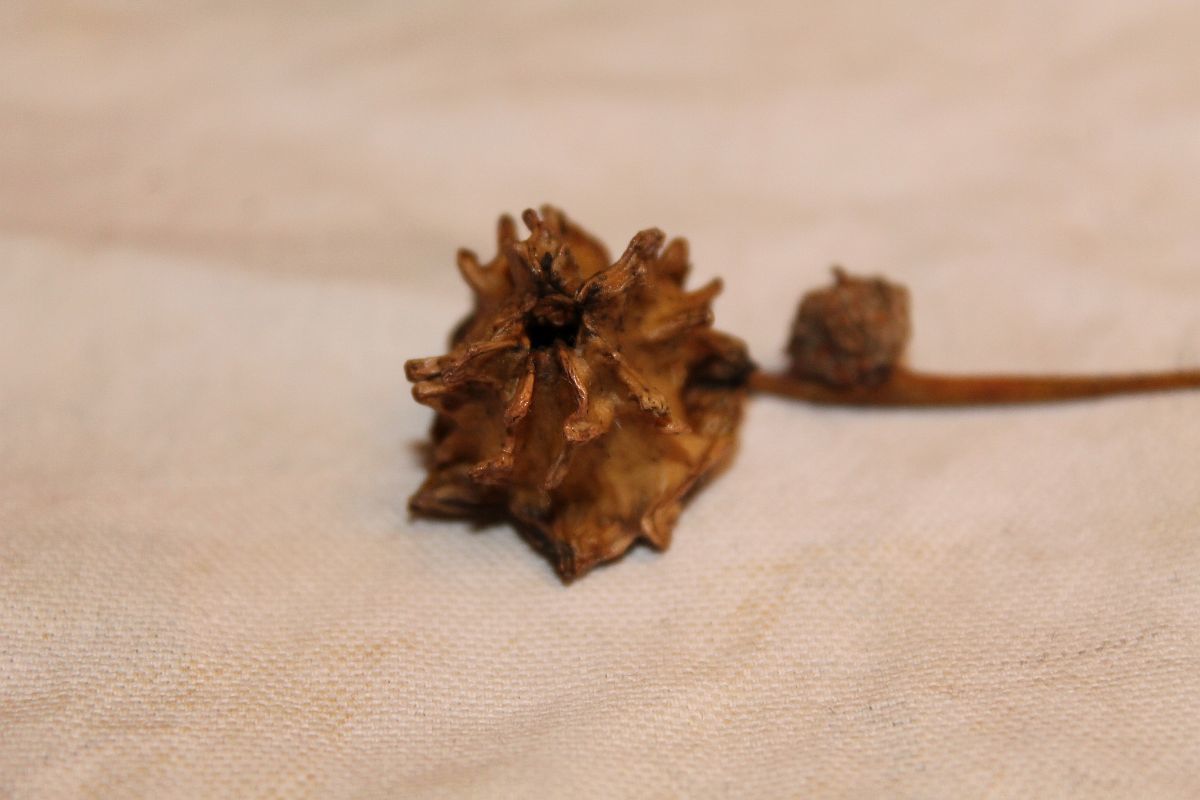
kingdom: Animalia
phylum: Arthropoda
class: Insecta
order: Hymenoptera
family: Cynipidae
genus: Andricus
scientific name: Andricus quercuscalicis
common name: Knopper gall
